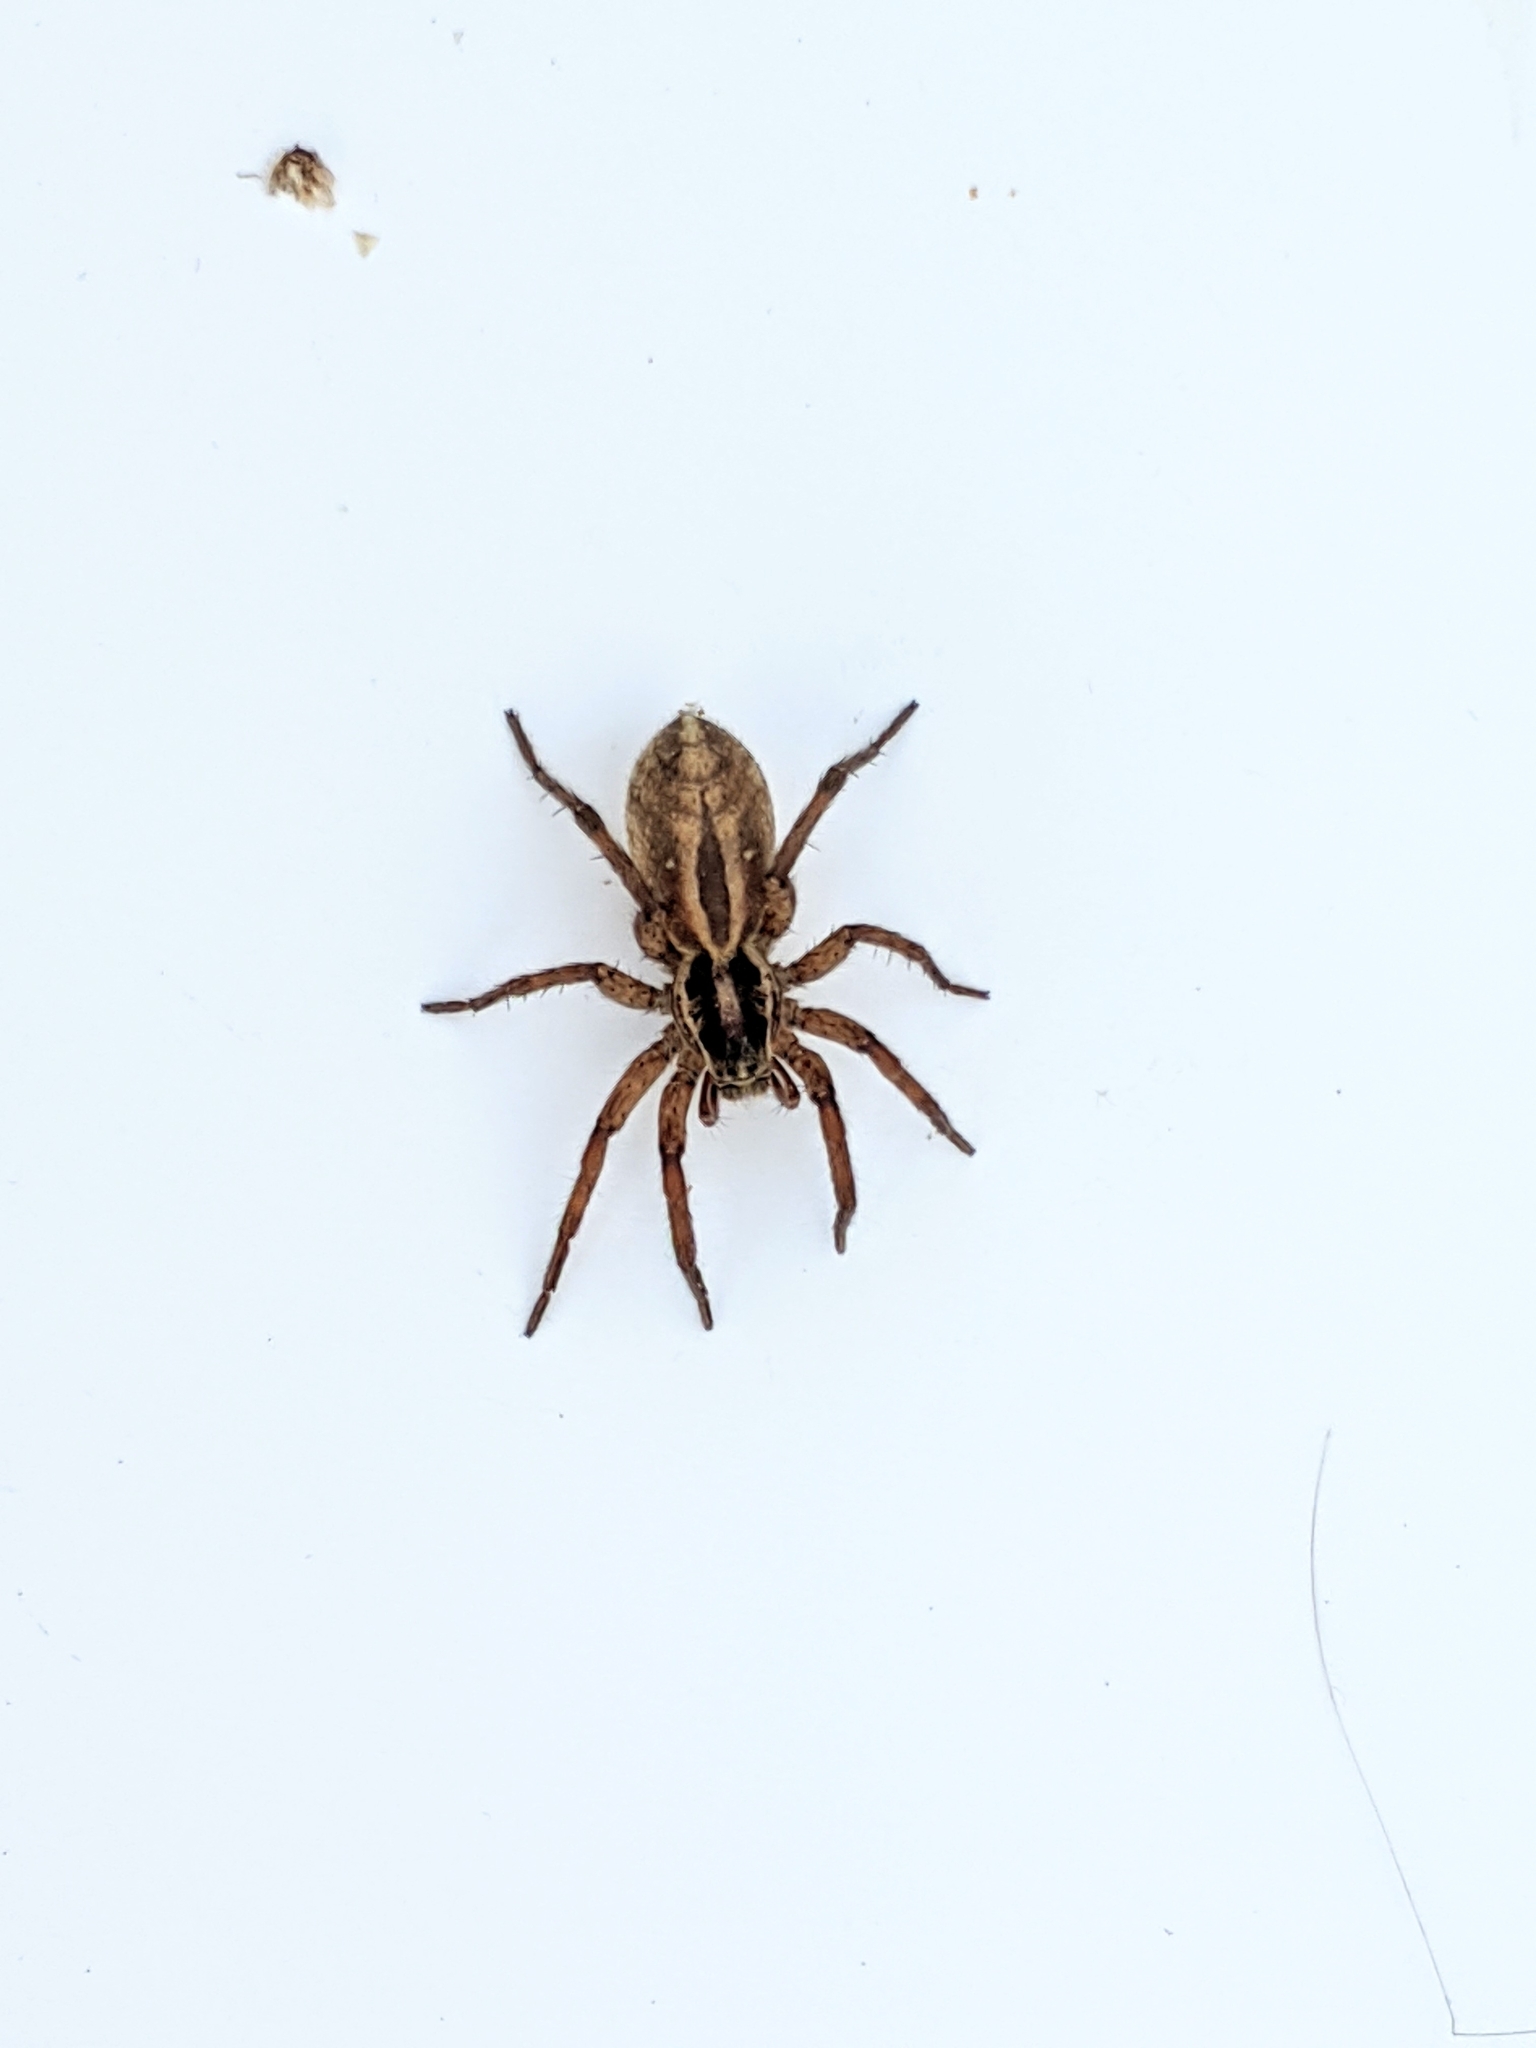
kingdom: Animalia
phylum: Arthropoda
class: Arachnida
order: Araneae
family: Lycosidae
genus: Schizocosa
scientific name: Schizocosa mccooki
